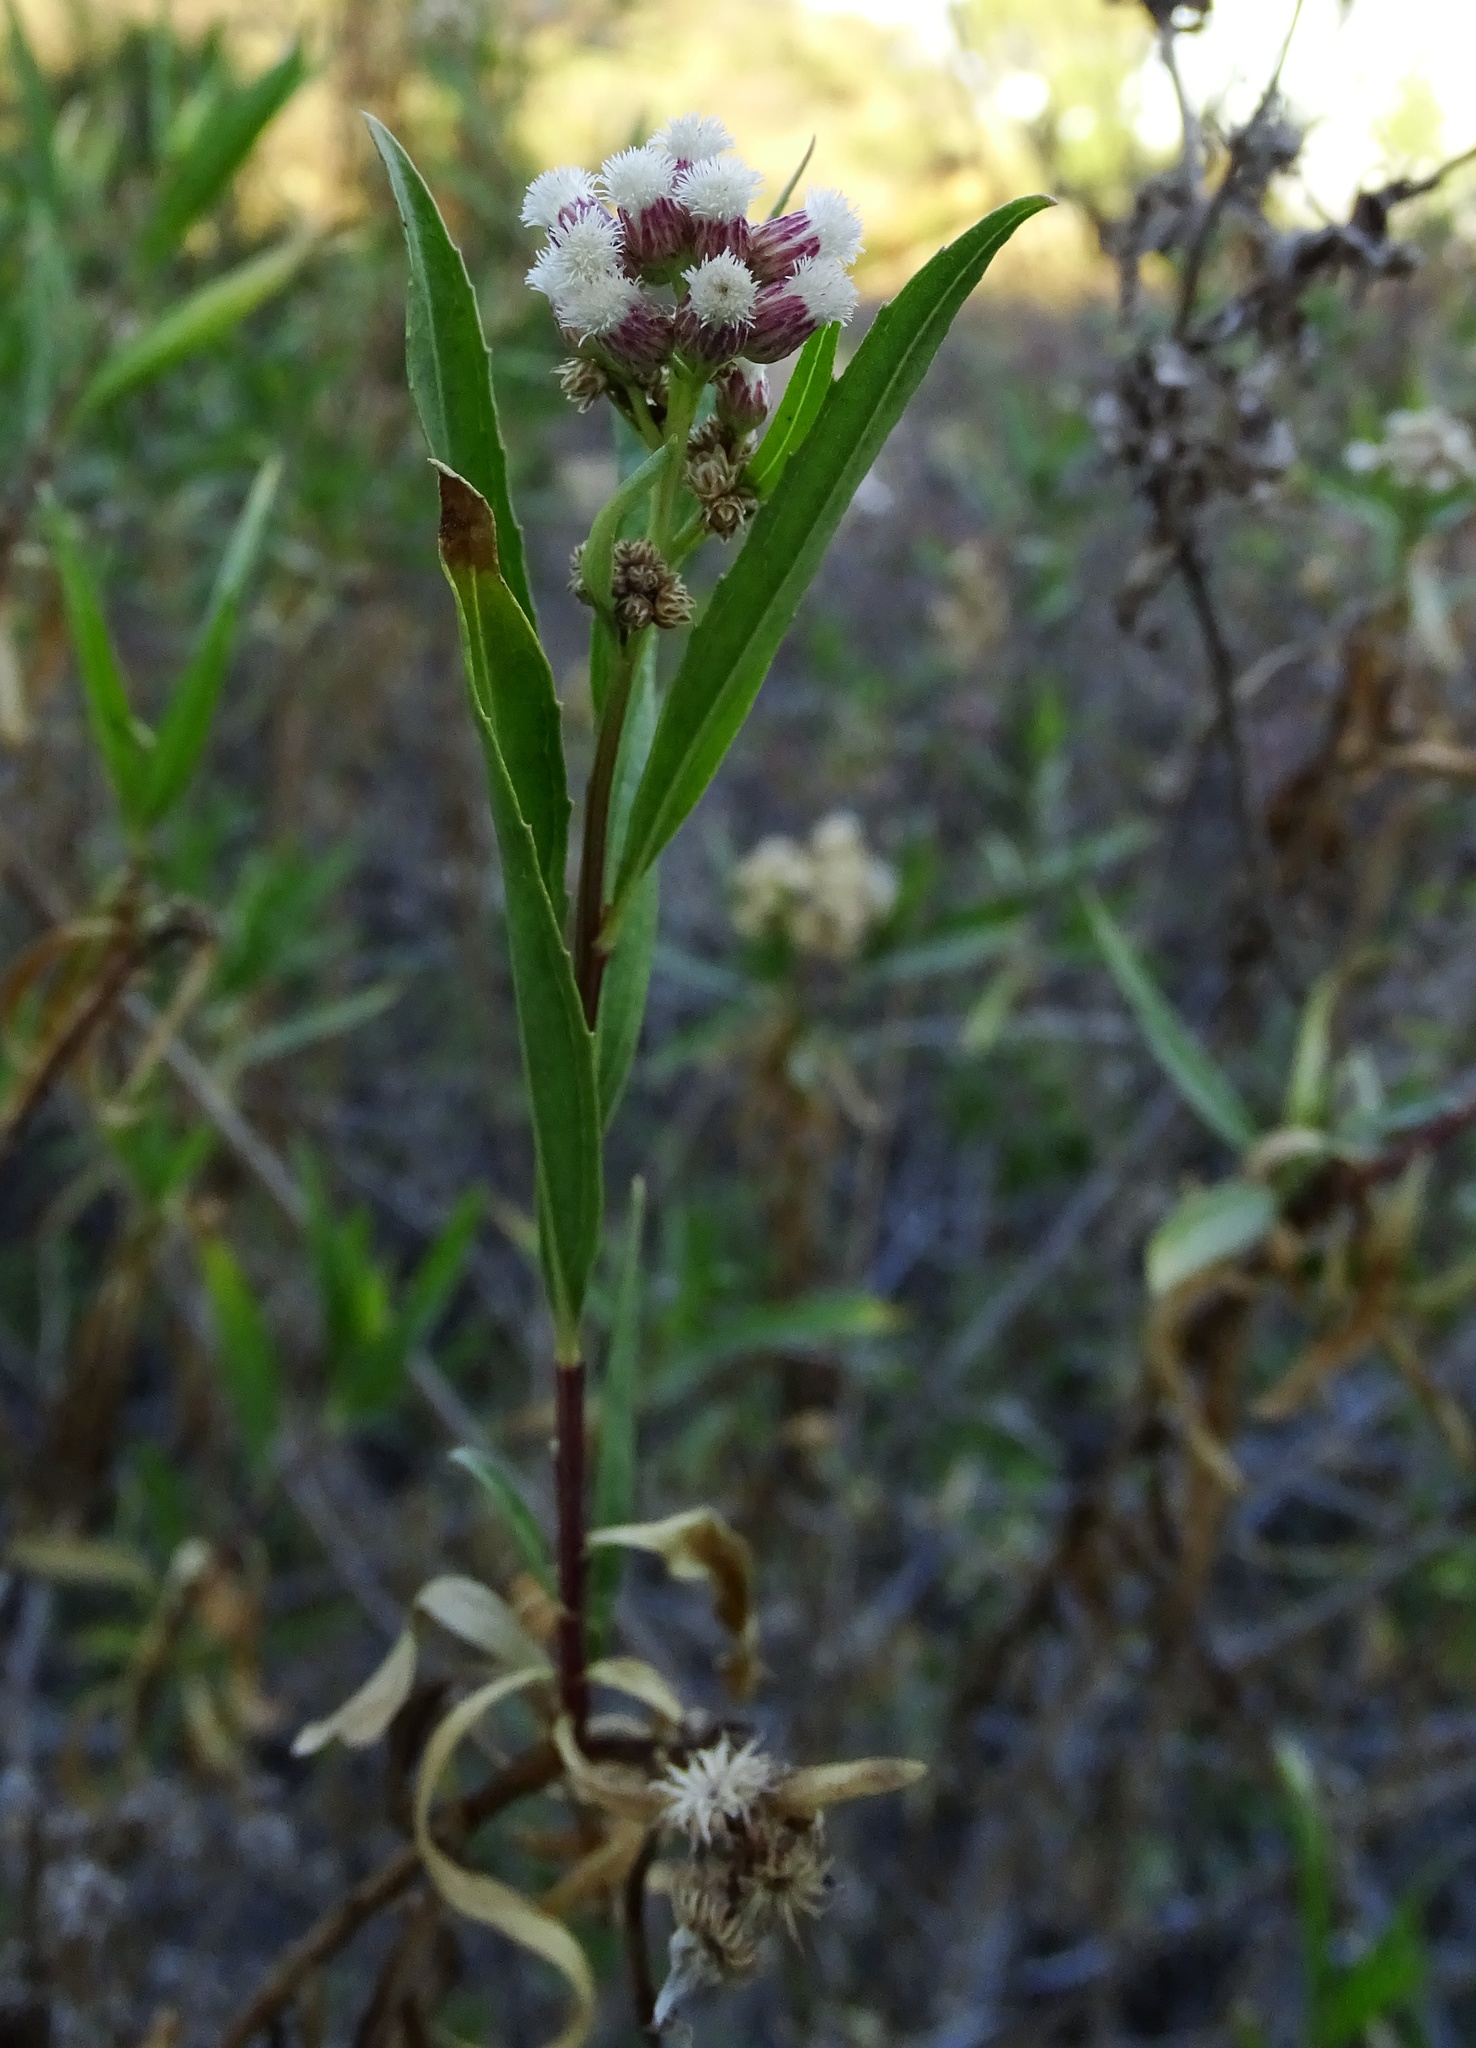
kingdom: Plantae
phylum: Tracheophyta
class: Magnoliopsida
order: Asterales
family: Asteraceae
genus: Baccharis
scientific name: Baccharis salicifolia
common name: Sticky baccharis
